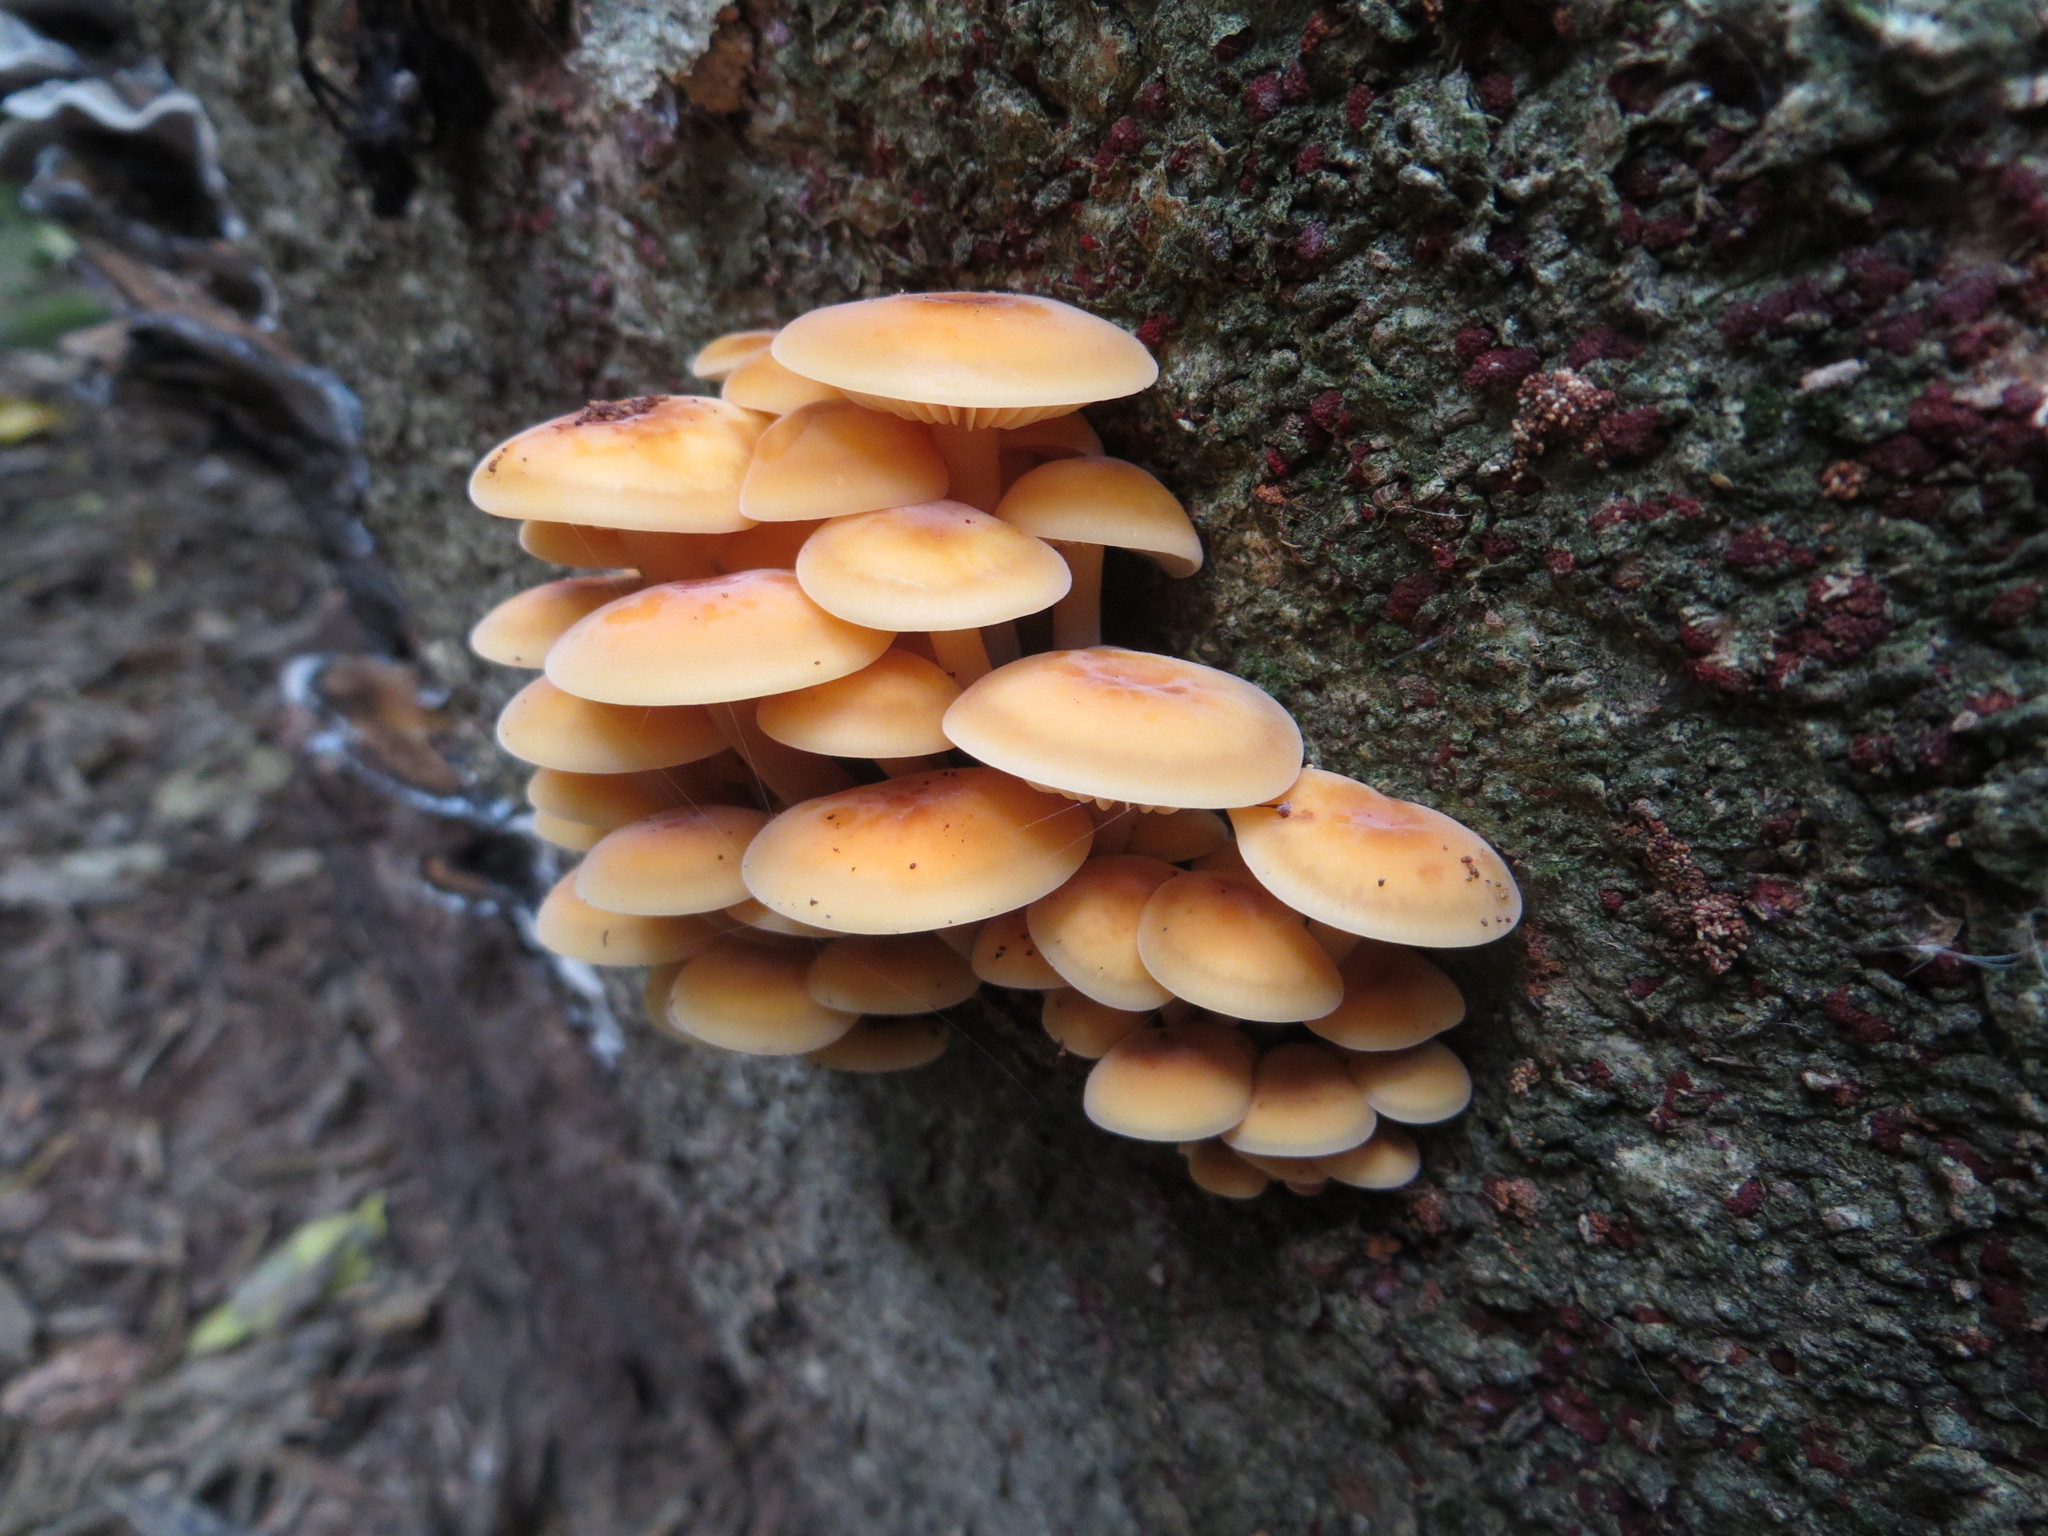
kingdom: Fungi
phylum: Basidiomycota
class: Agaricomycetes
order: Agaricales
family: Physalacriaceae
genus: Flammulina
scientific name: Flammulina velutipes
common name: Velvet shank
